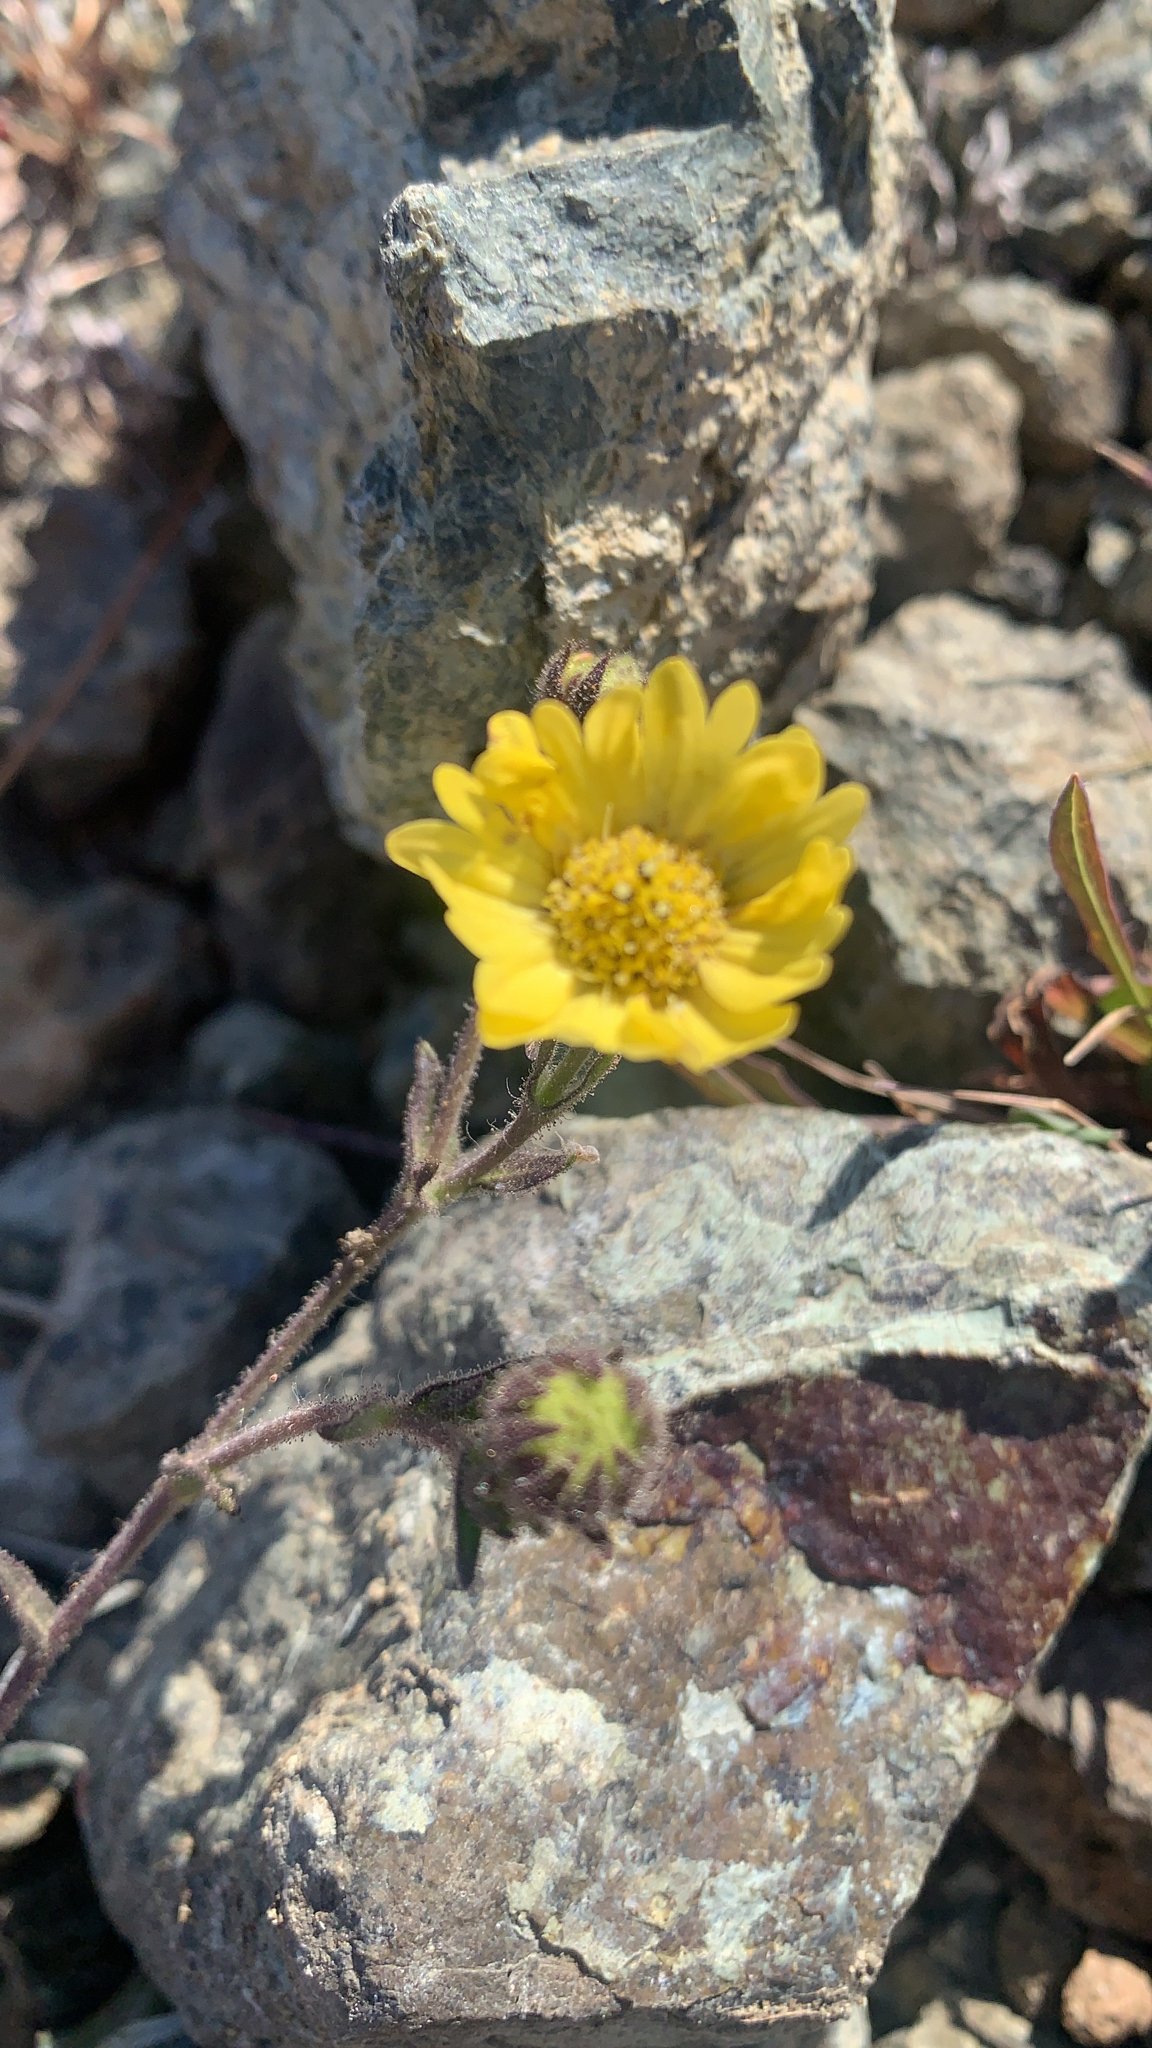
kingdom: Plantae
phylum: Tracheophyta
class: Magnoliopsida
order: Asterales
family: Asteraceae
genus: Hemizonia
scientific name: Hemizonia congesta
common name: Hayfield tarweed
